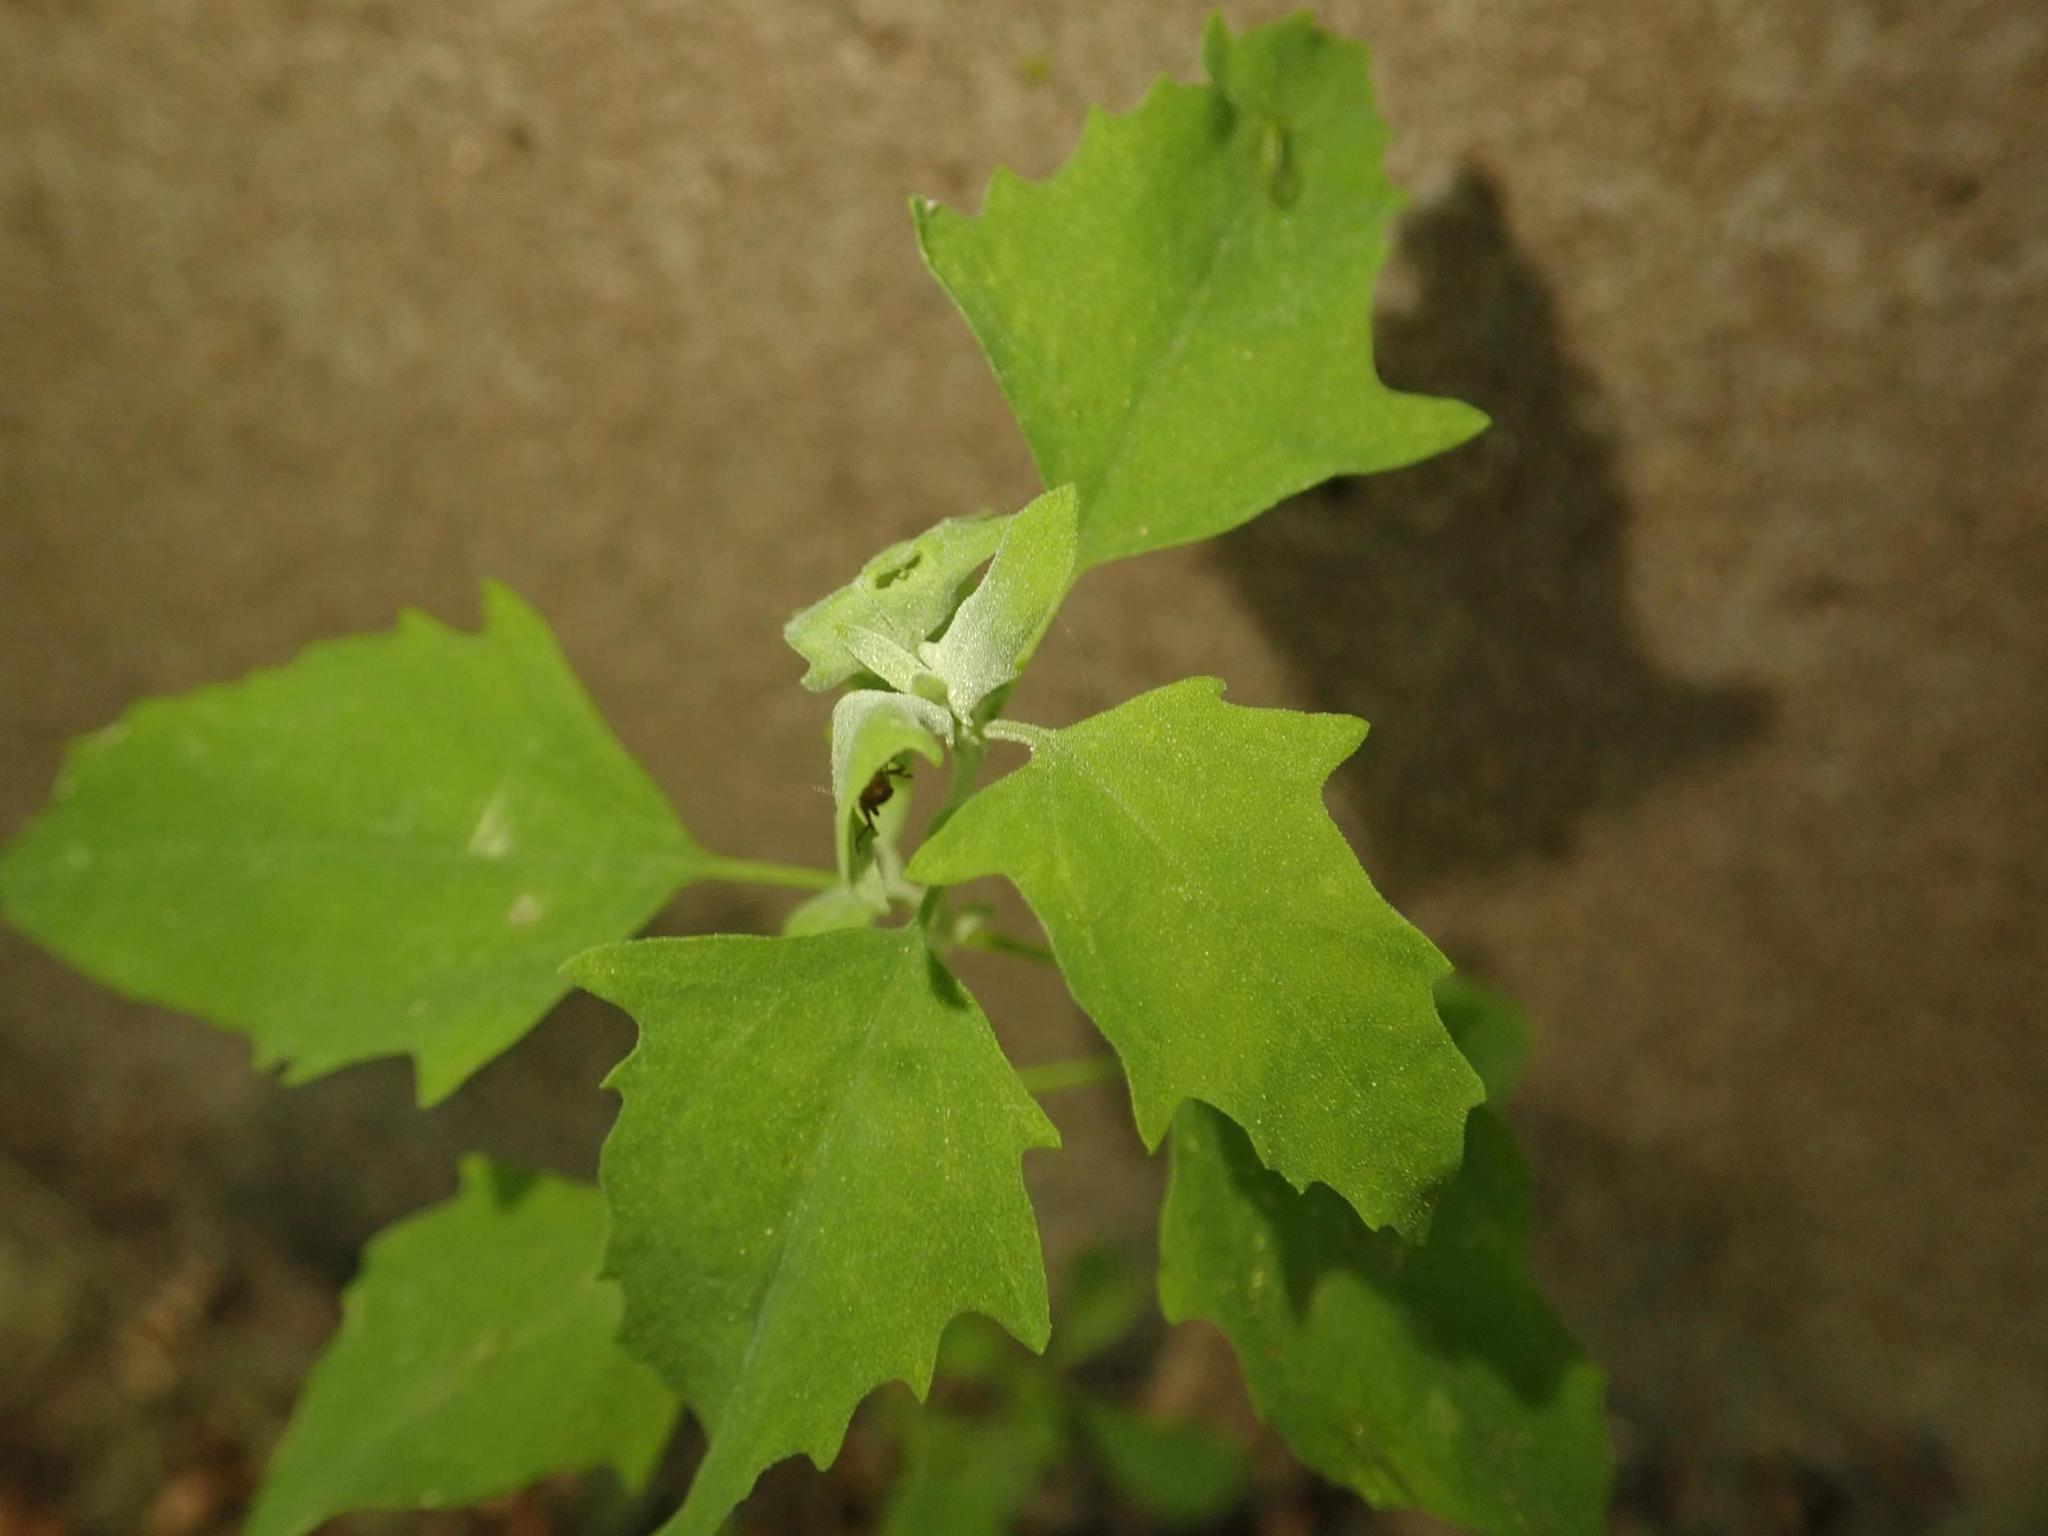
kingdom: Plantae
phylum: Tracheophyta
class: Magnoliopsida
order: Caryophyllales
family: Amaranthaceae
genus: Chenopodium
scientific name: Chenopodium album
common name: Fat-hen
